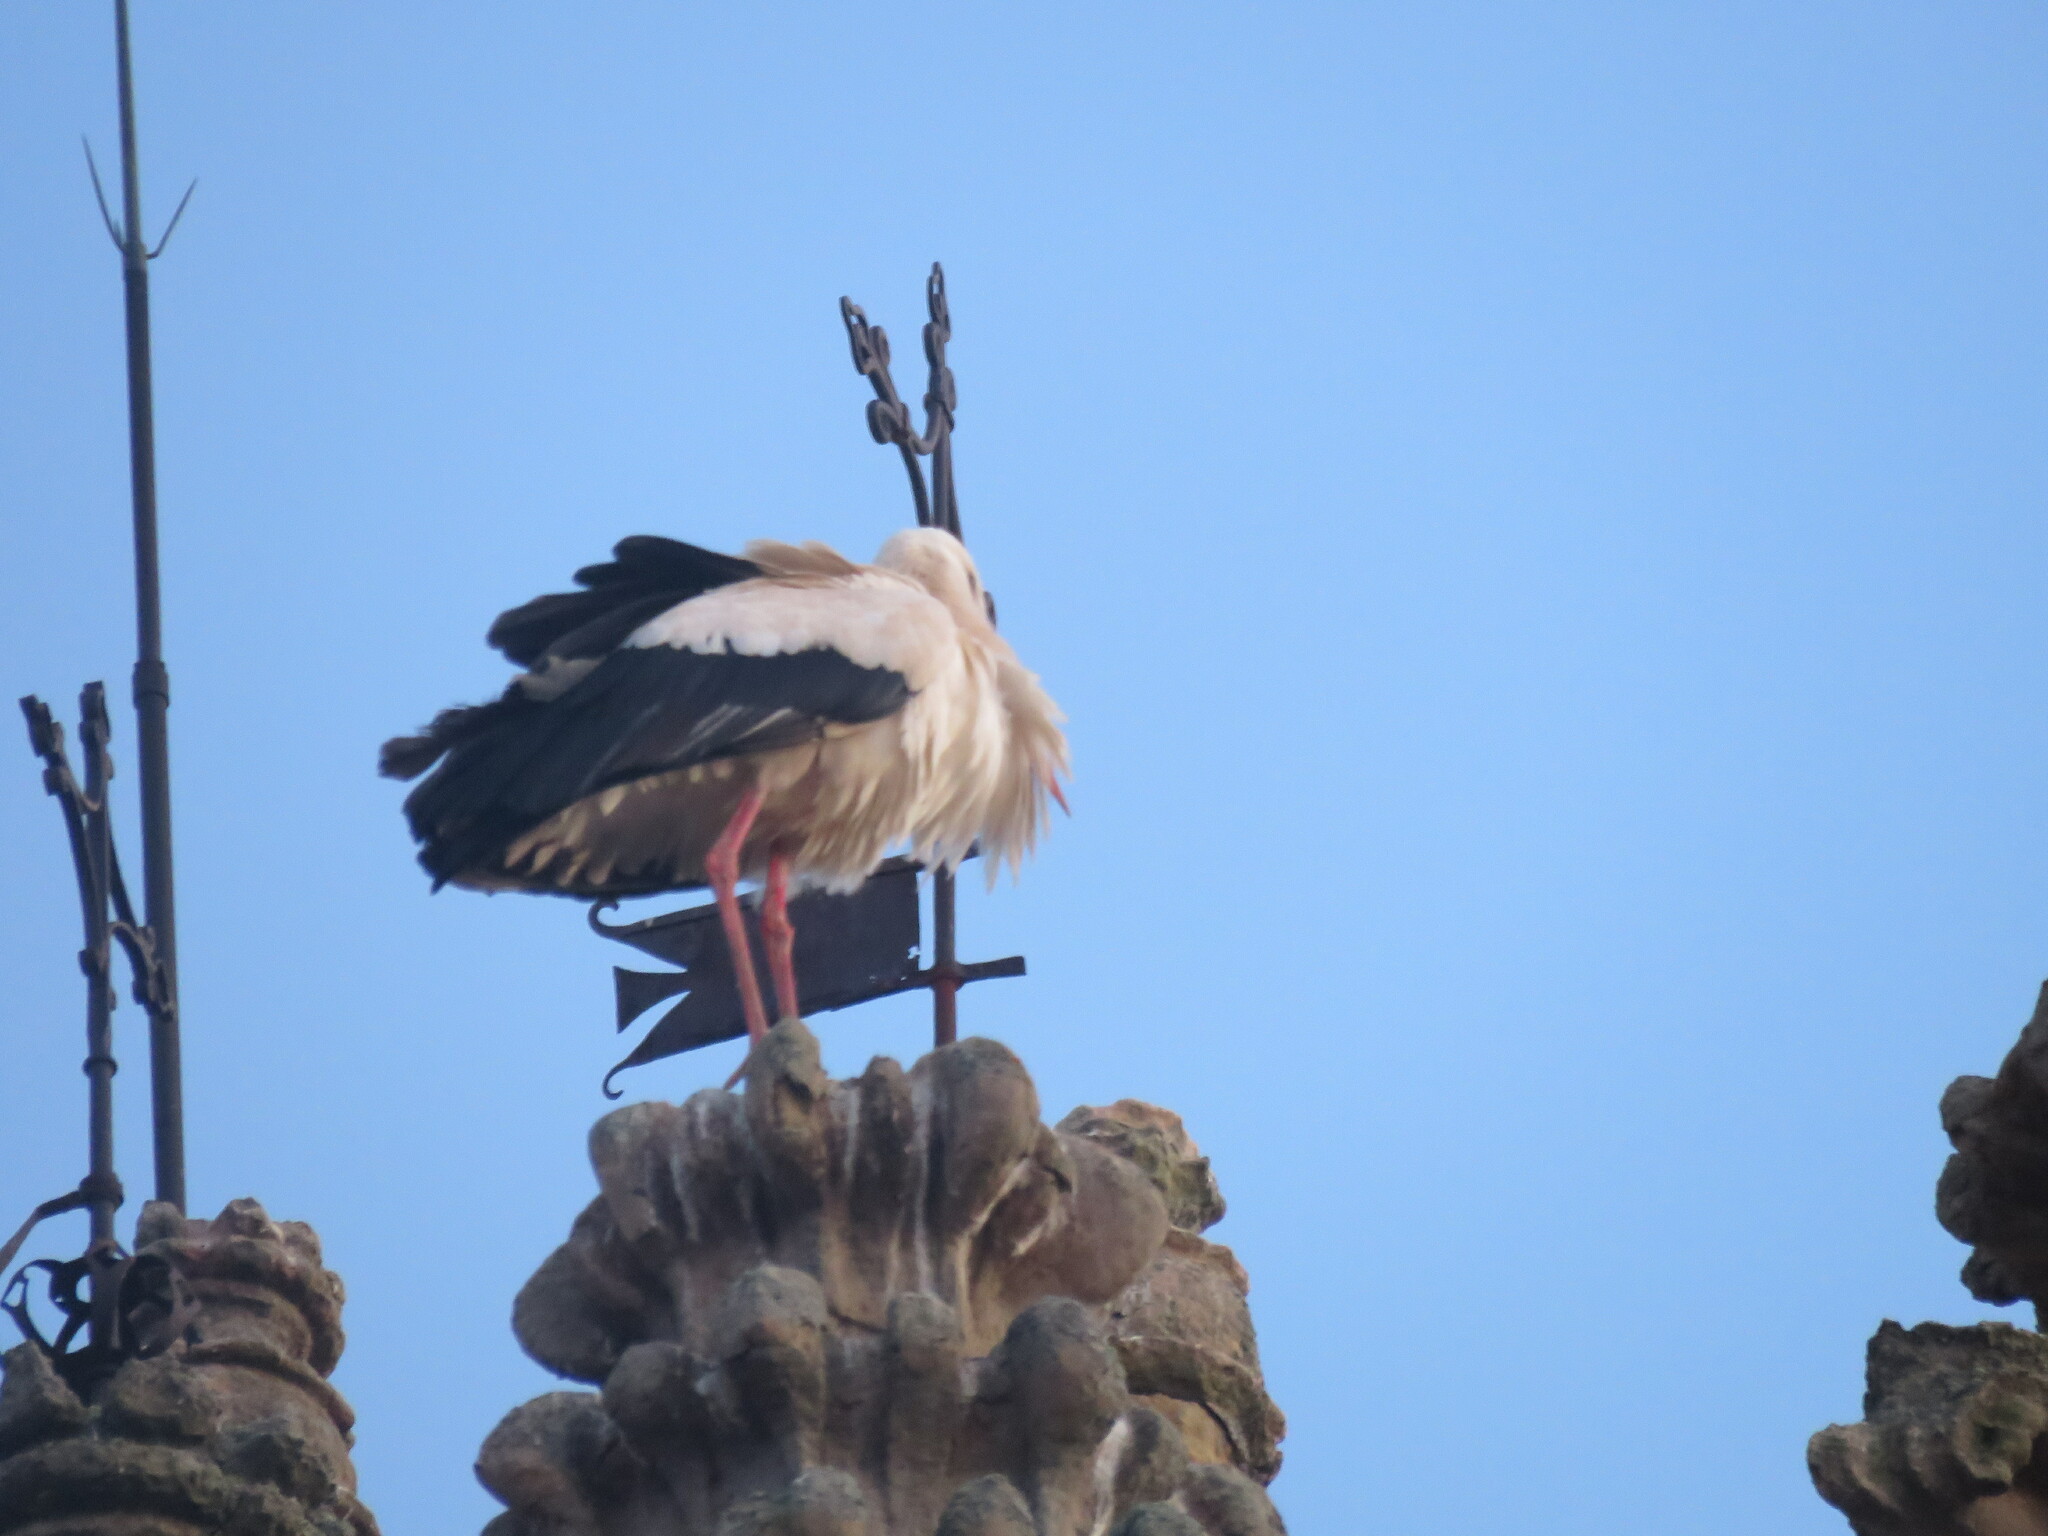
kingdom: Animalia
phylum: Chordata
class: Aves
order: Ciconiiformes
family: Ciconiidae
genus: Ciconia
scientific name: Ciconia ciconia
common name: White stork
